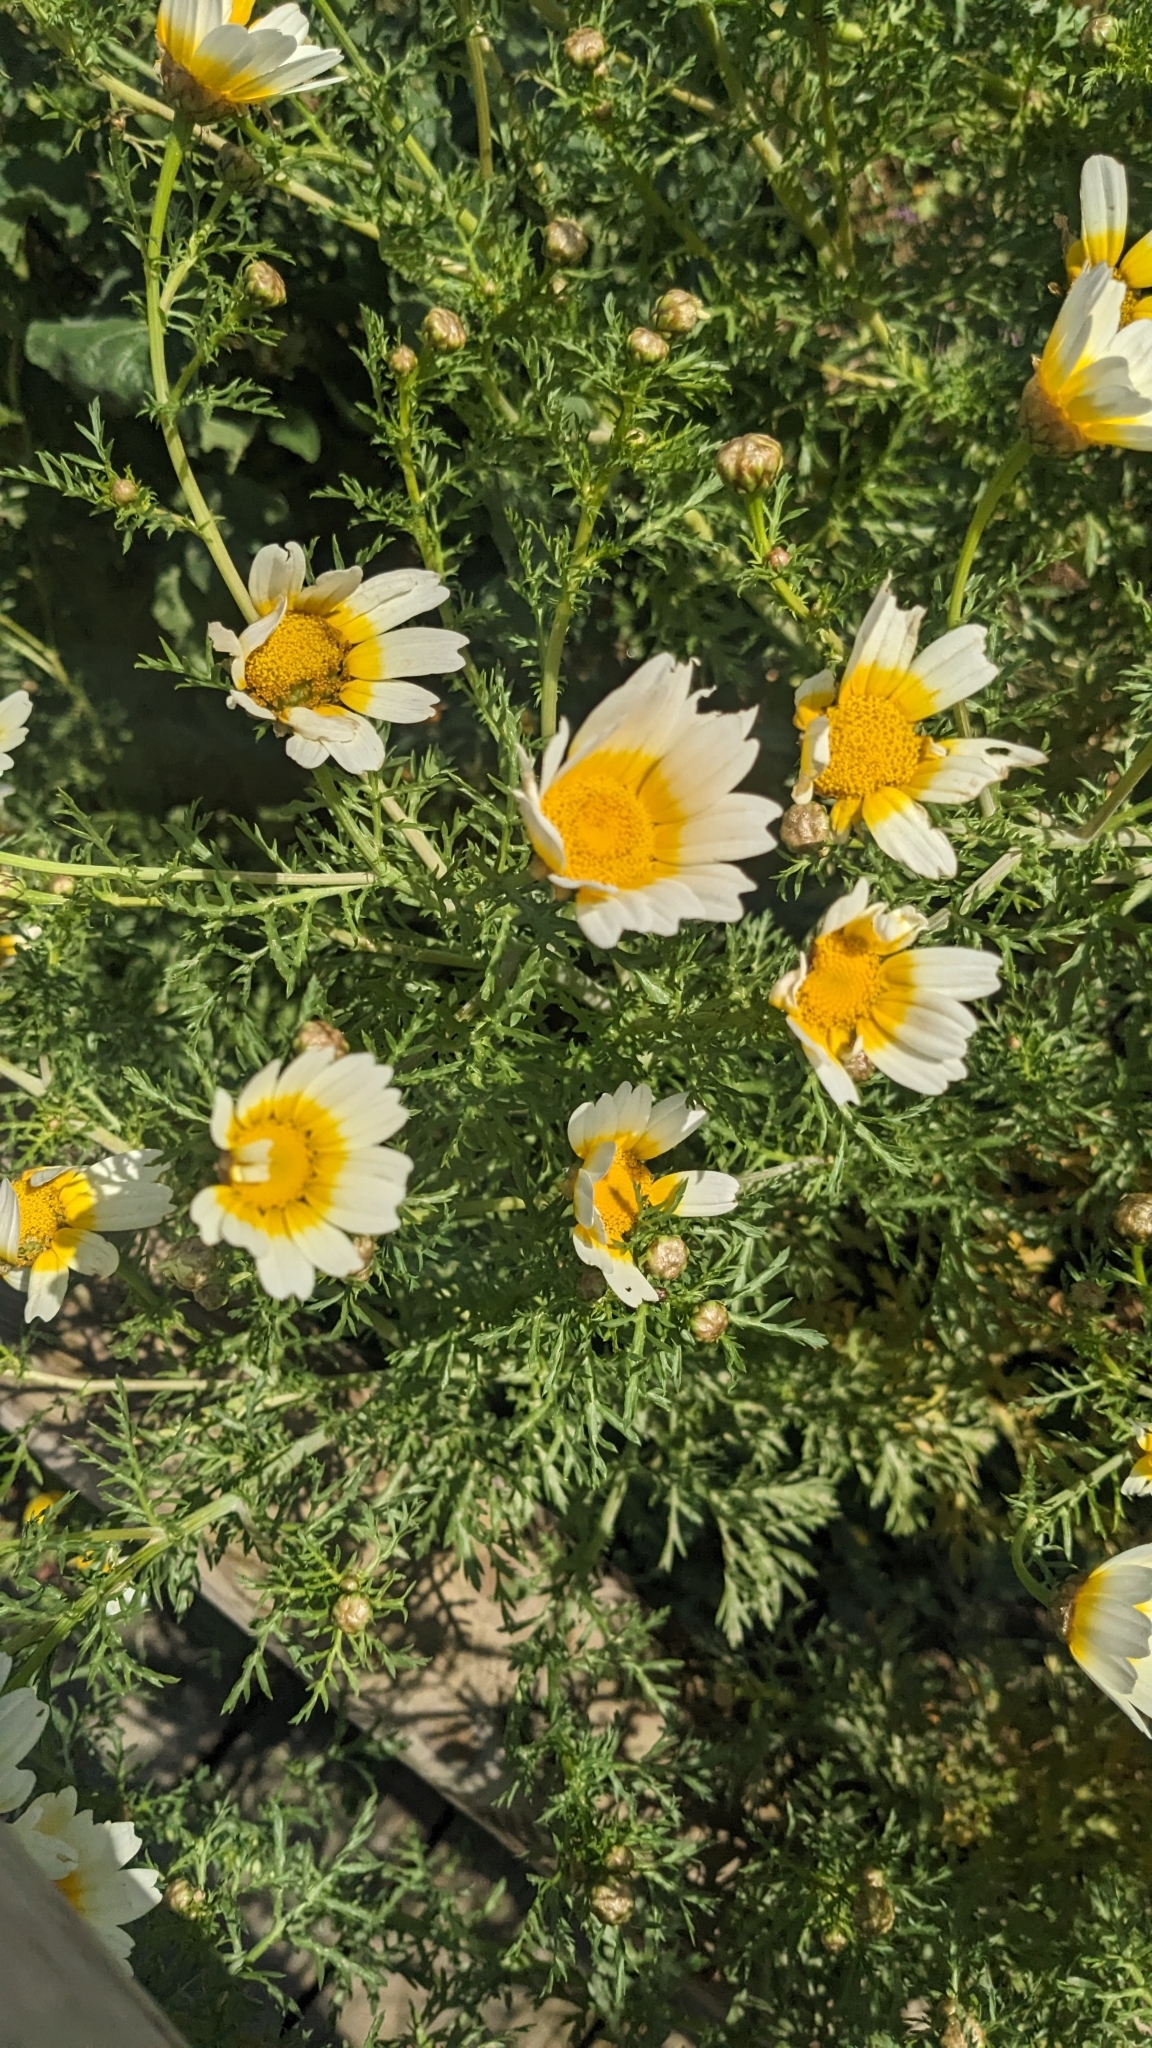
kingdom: Plantae
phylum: Tracheophyta
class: Magnoliopsida
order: Asterales
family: Asteraceae
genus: Glebionis
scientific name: Glebionis coronaria
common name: Crowndaisy
